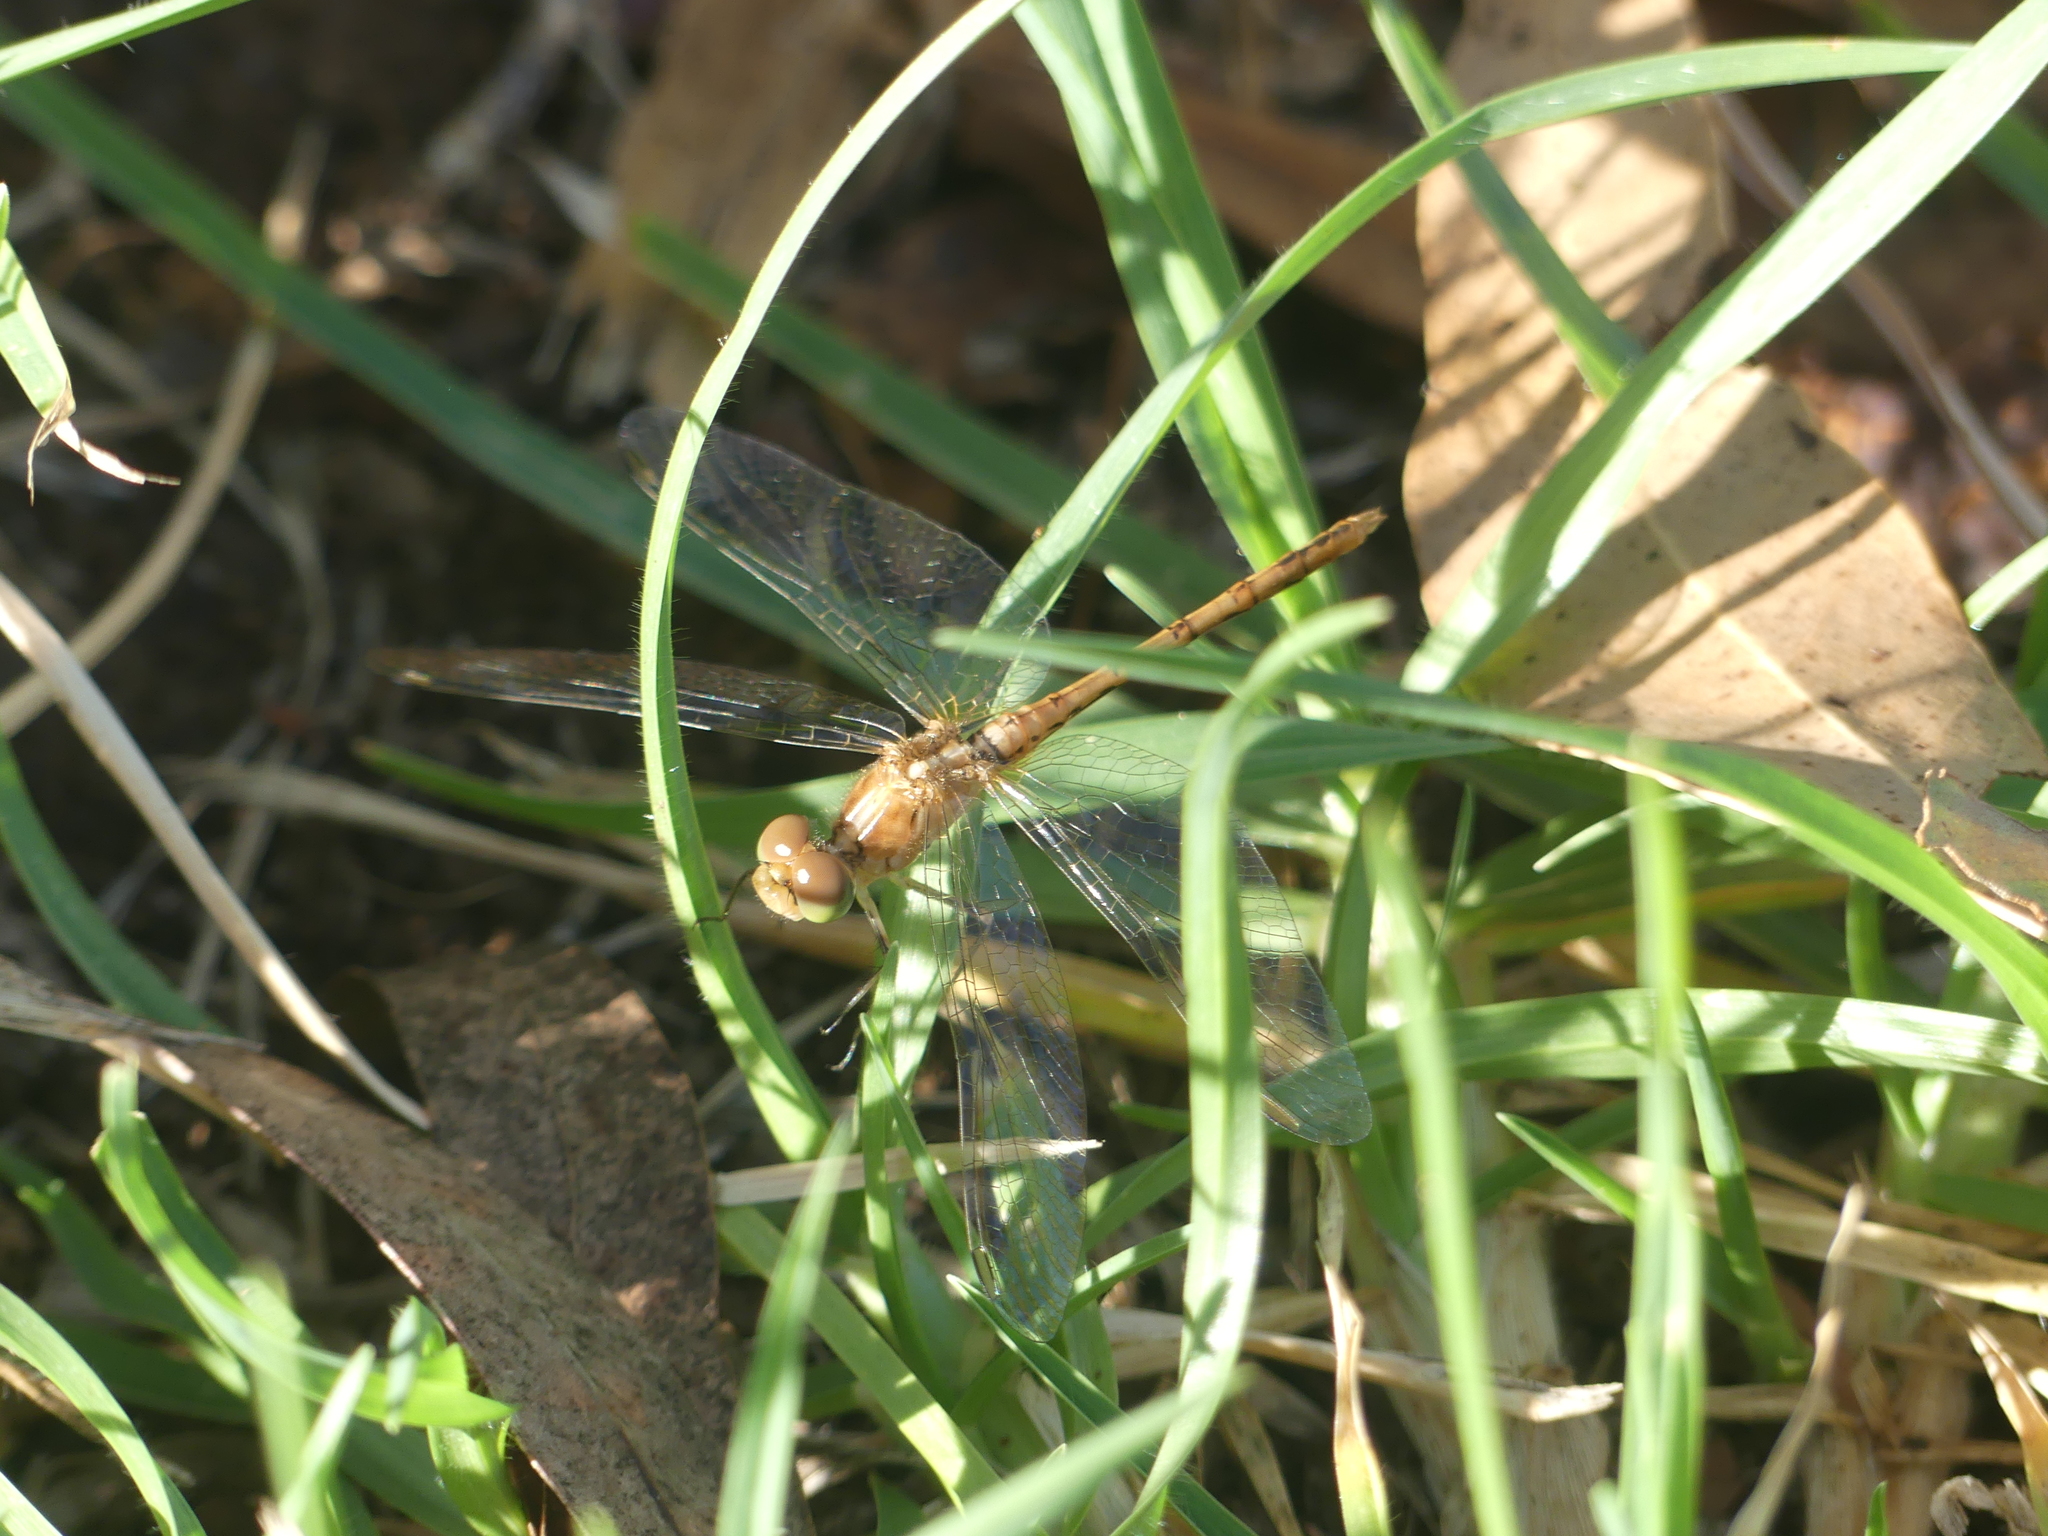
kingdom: Animalia
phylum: Arthropoda
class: Insecta
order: Odonata
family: Libellulidae
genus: Diplacodes
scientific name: Diplacodes bipunctata
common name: Red percher dragonfly
